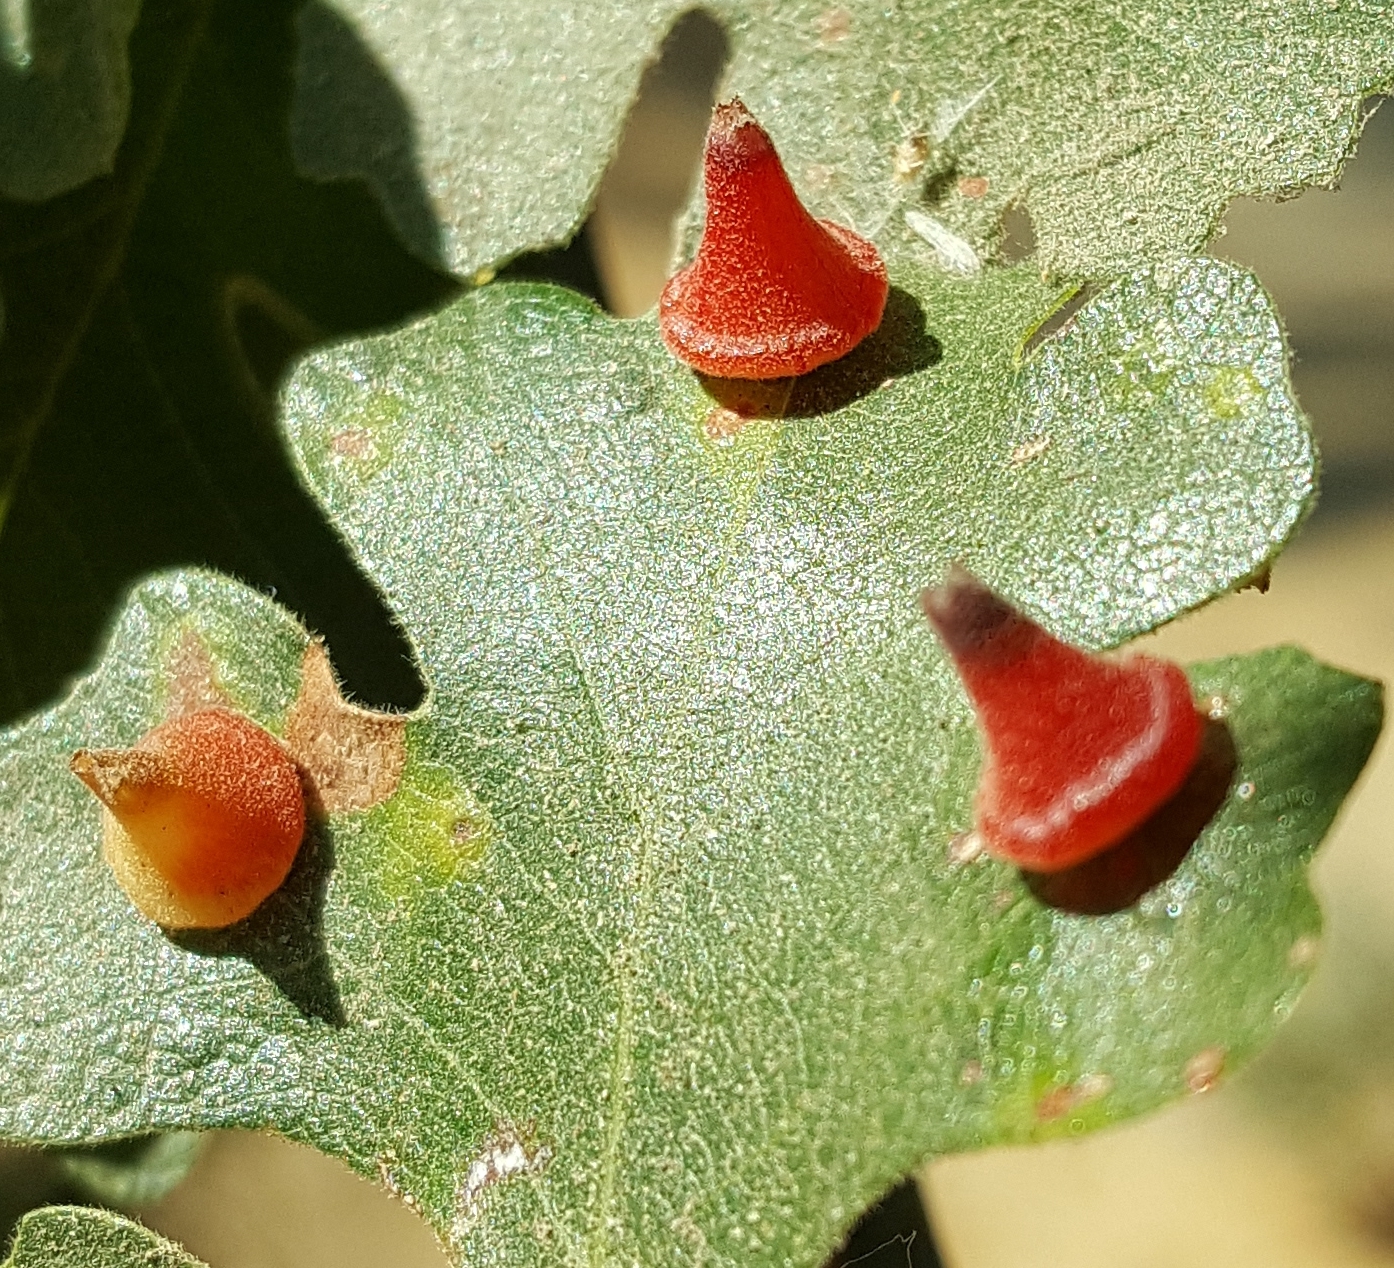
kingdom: Animalia
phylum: Arthropoda
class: Insecta
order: Hymenoptera
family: Cynipidae
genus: Andricus
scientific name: Andricus
